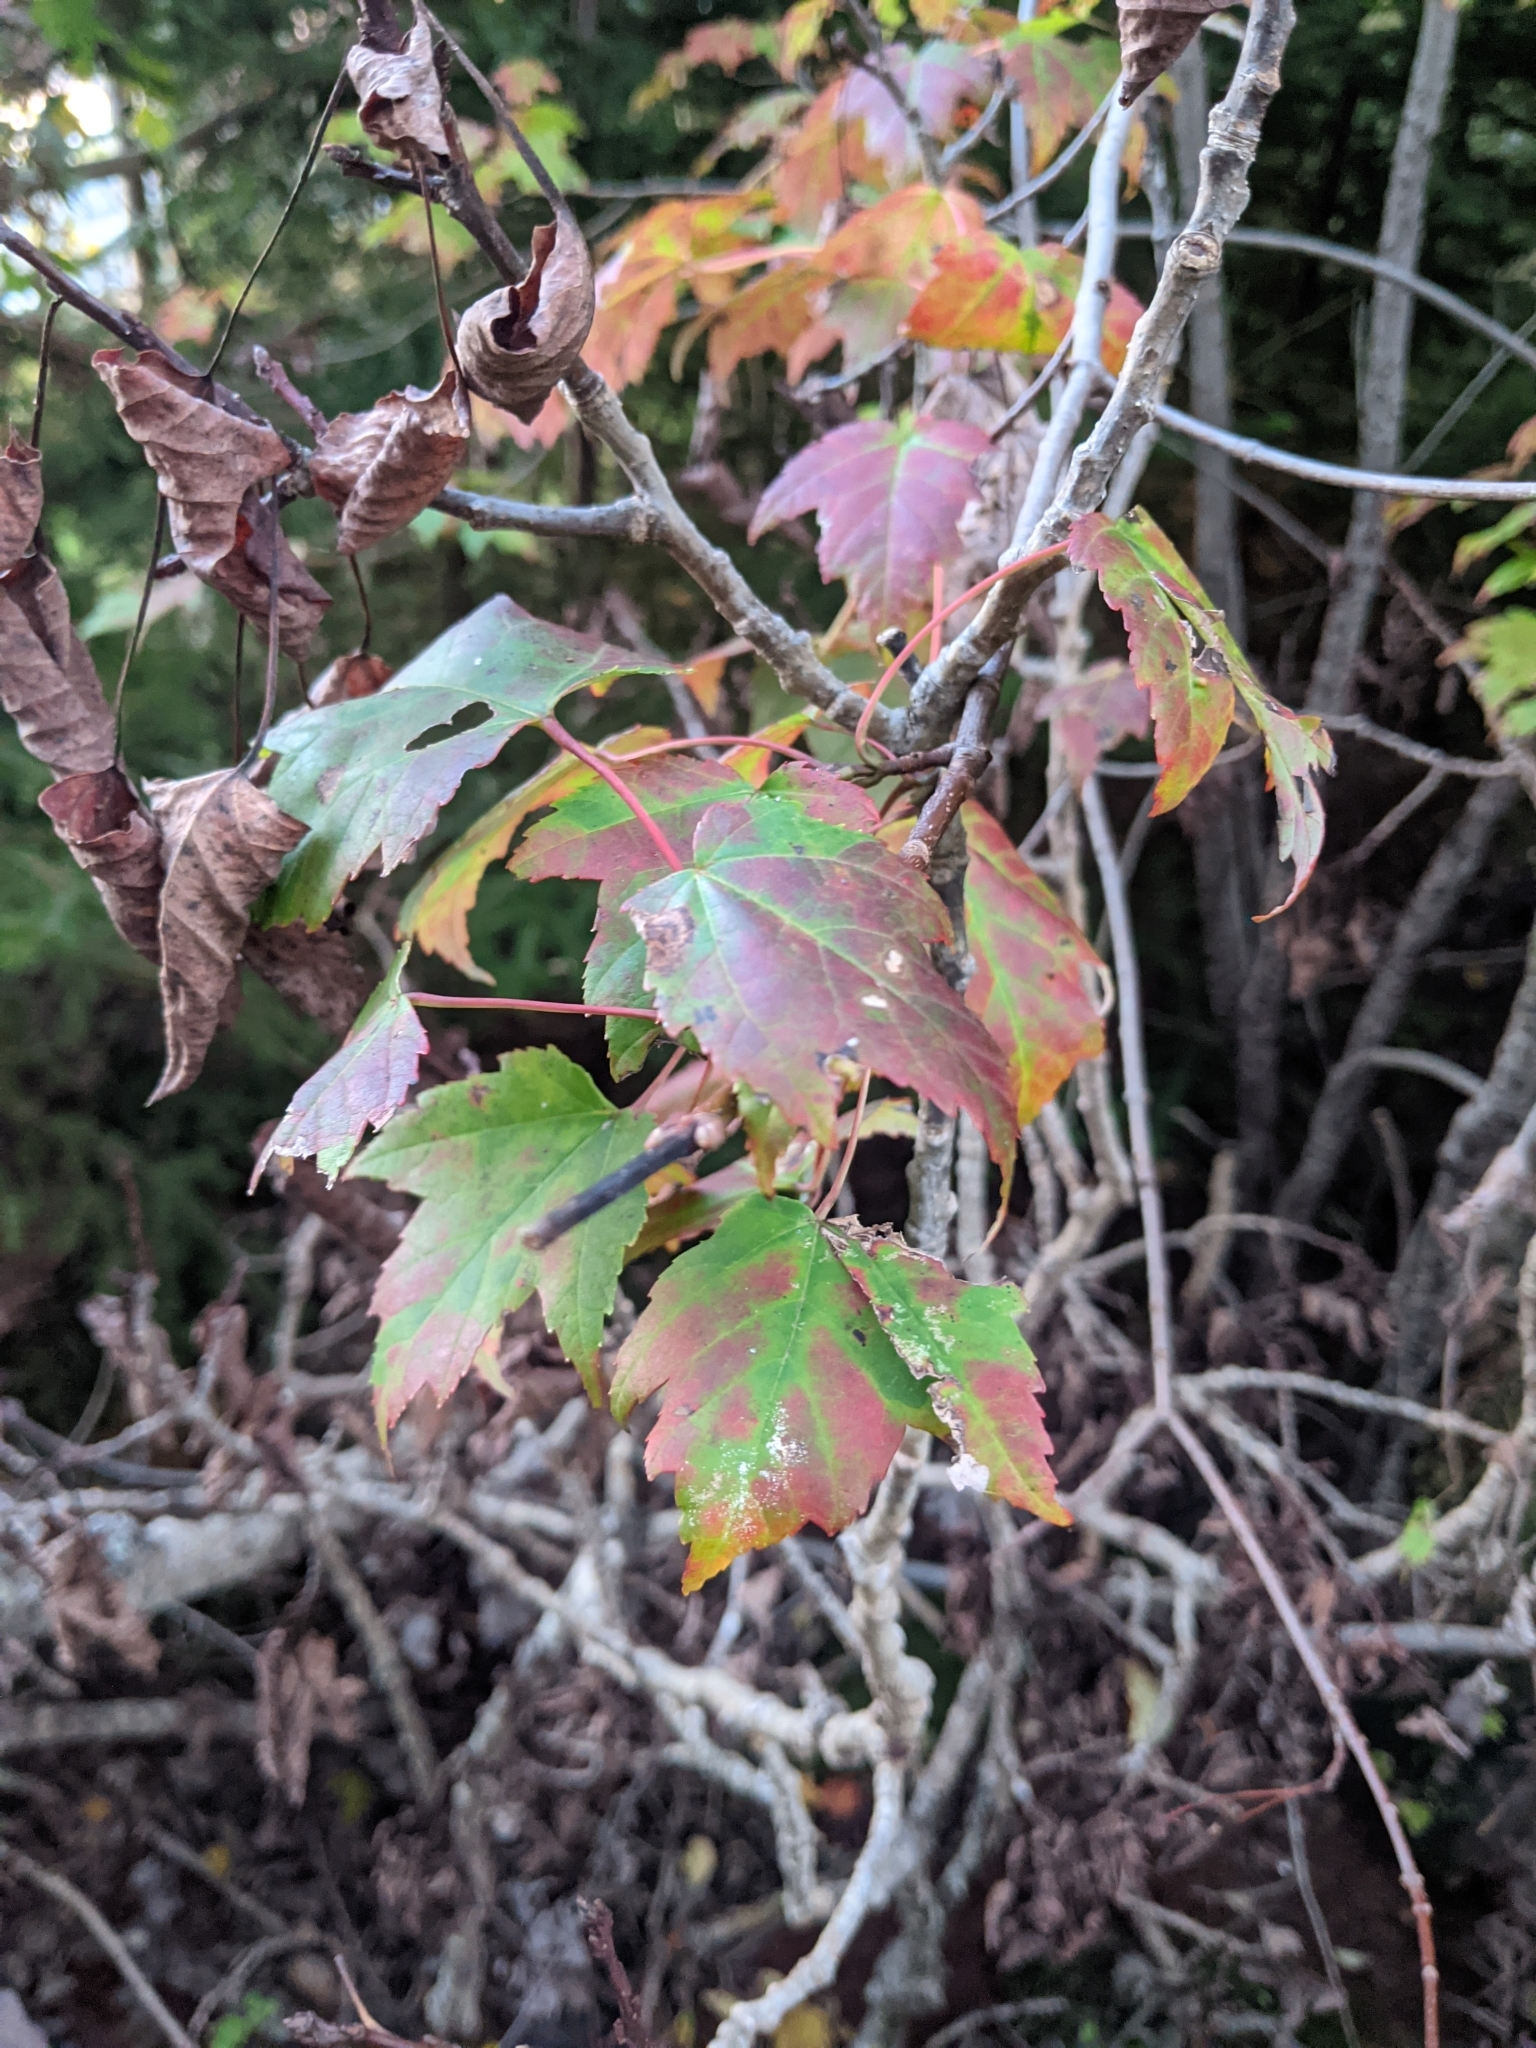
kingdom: Plantae
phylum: Tracheophyta
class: Magnoliopsida
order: Sapindales
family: Sapindaceae
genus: Acer
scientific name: Acer rubrum
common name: Red maple
